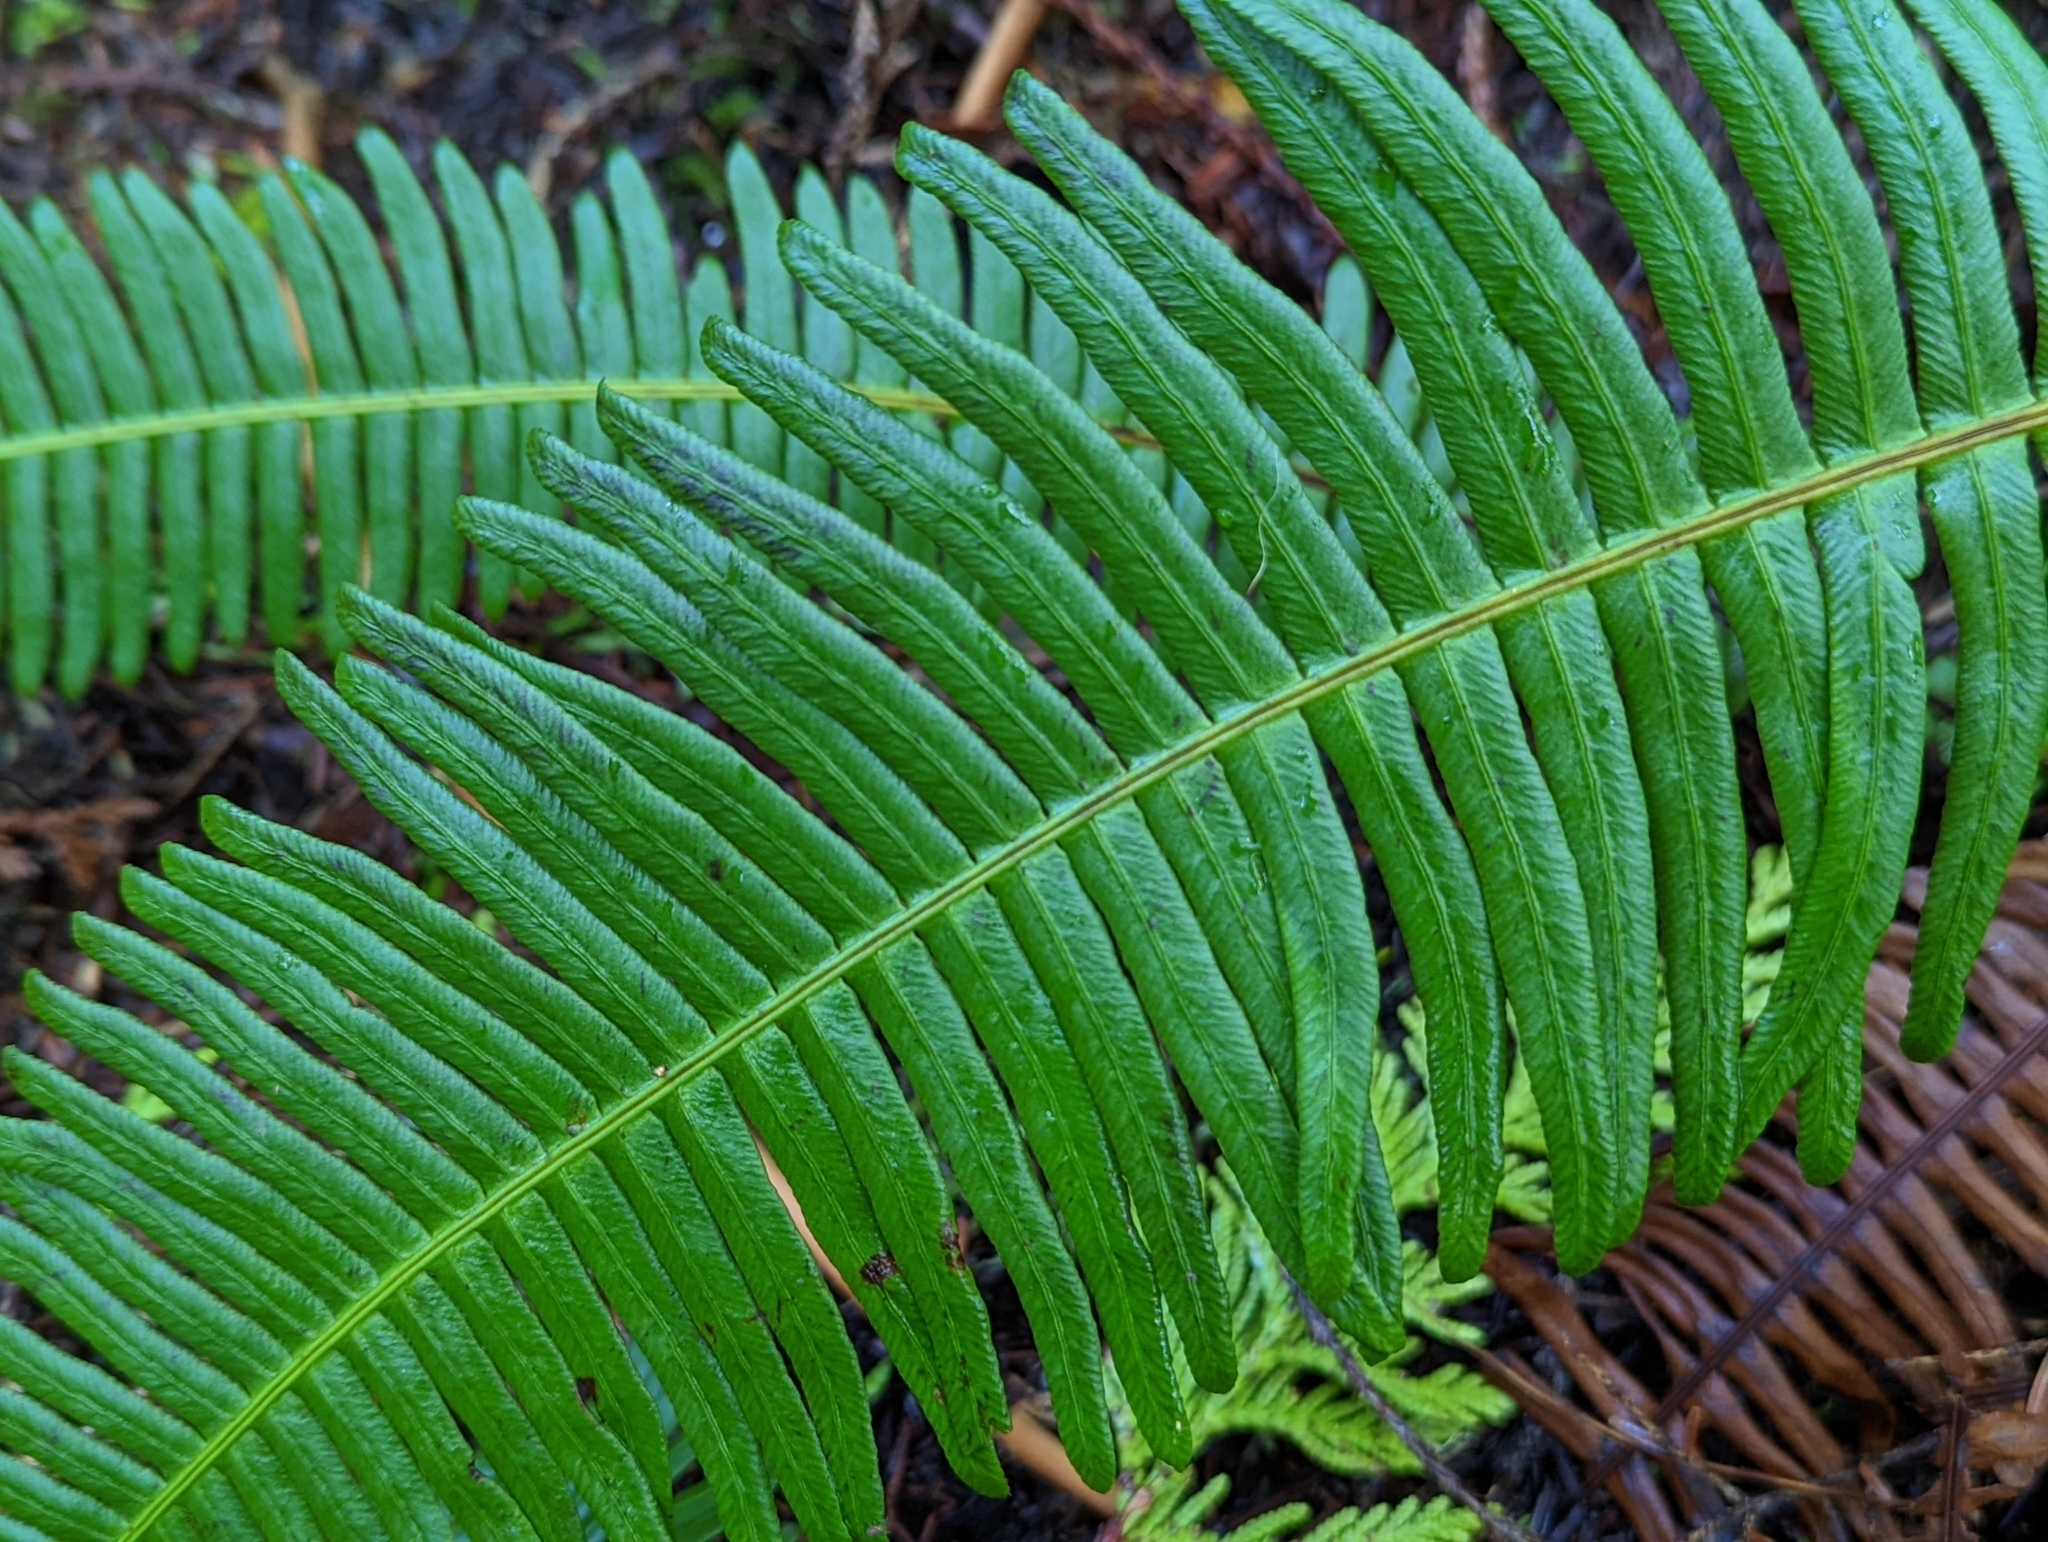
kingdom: Plantae
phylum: Tracheophyta
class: Polypodiopsida
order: Polypodiales
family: Blechnaceae
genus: Struthiopteris
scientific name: Struthiopteris spicant
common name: Deer fern
